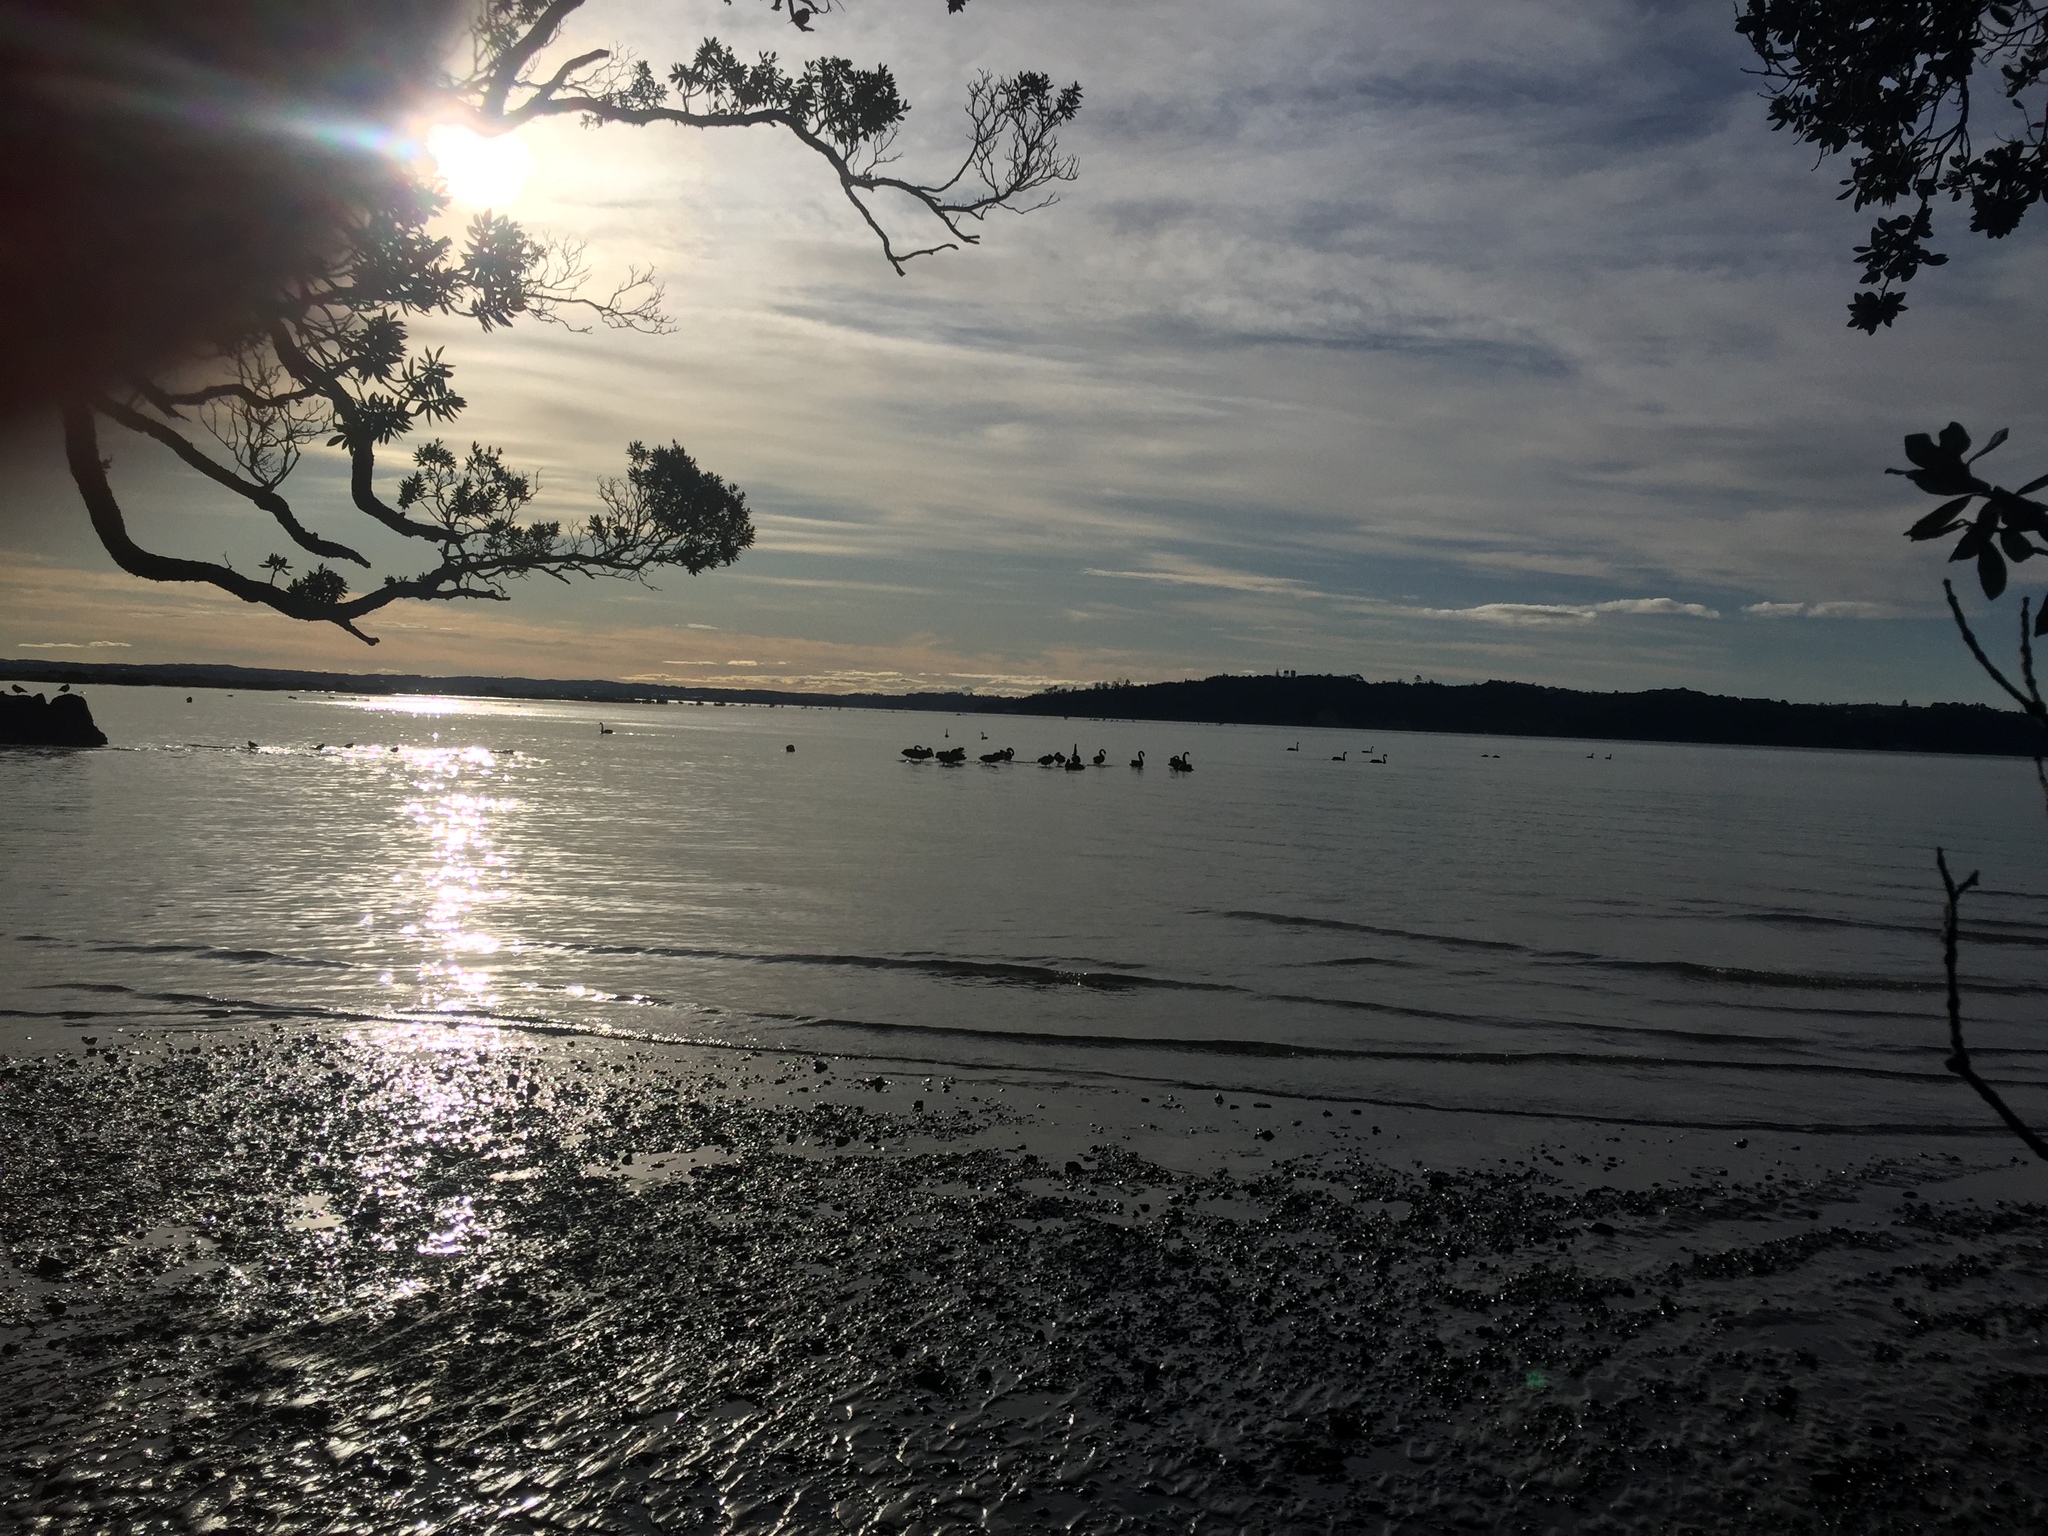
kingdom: Animalia
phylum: Chordata
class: Aves
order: Anseriformes
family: Anatidae
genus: Cygnus
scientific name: Cygnus atratus
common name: Black swan
